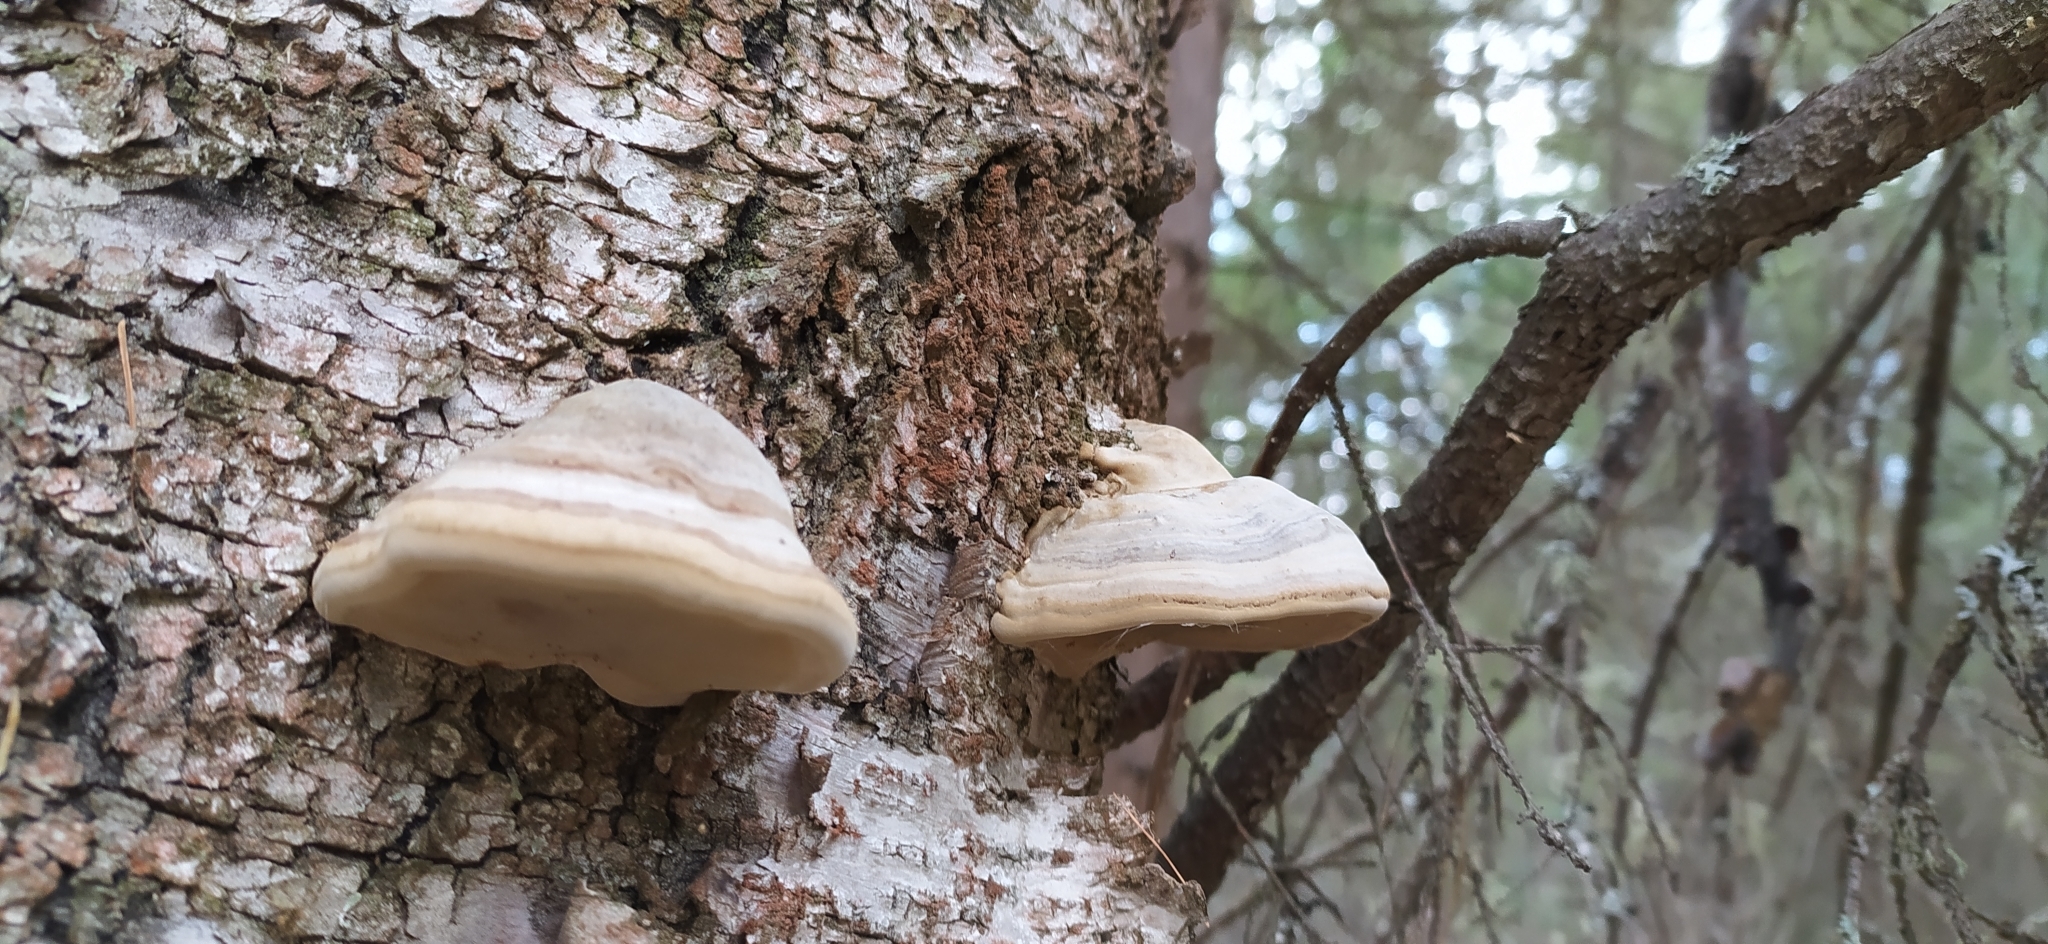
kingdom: Fungi
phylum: Basidiomycota
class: Agaricomycetes
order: Polyporales
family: Polyporaceae
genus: Fomes
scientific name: Fomes fomentarius
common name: Hoof fungus
